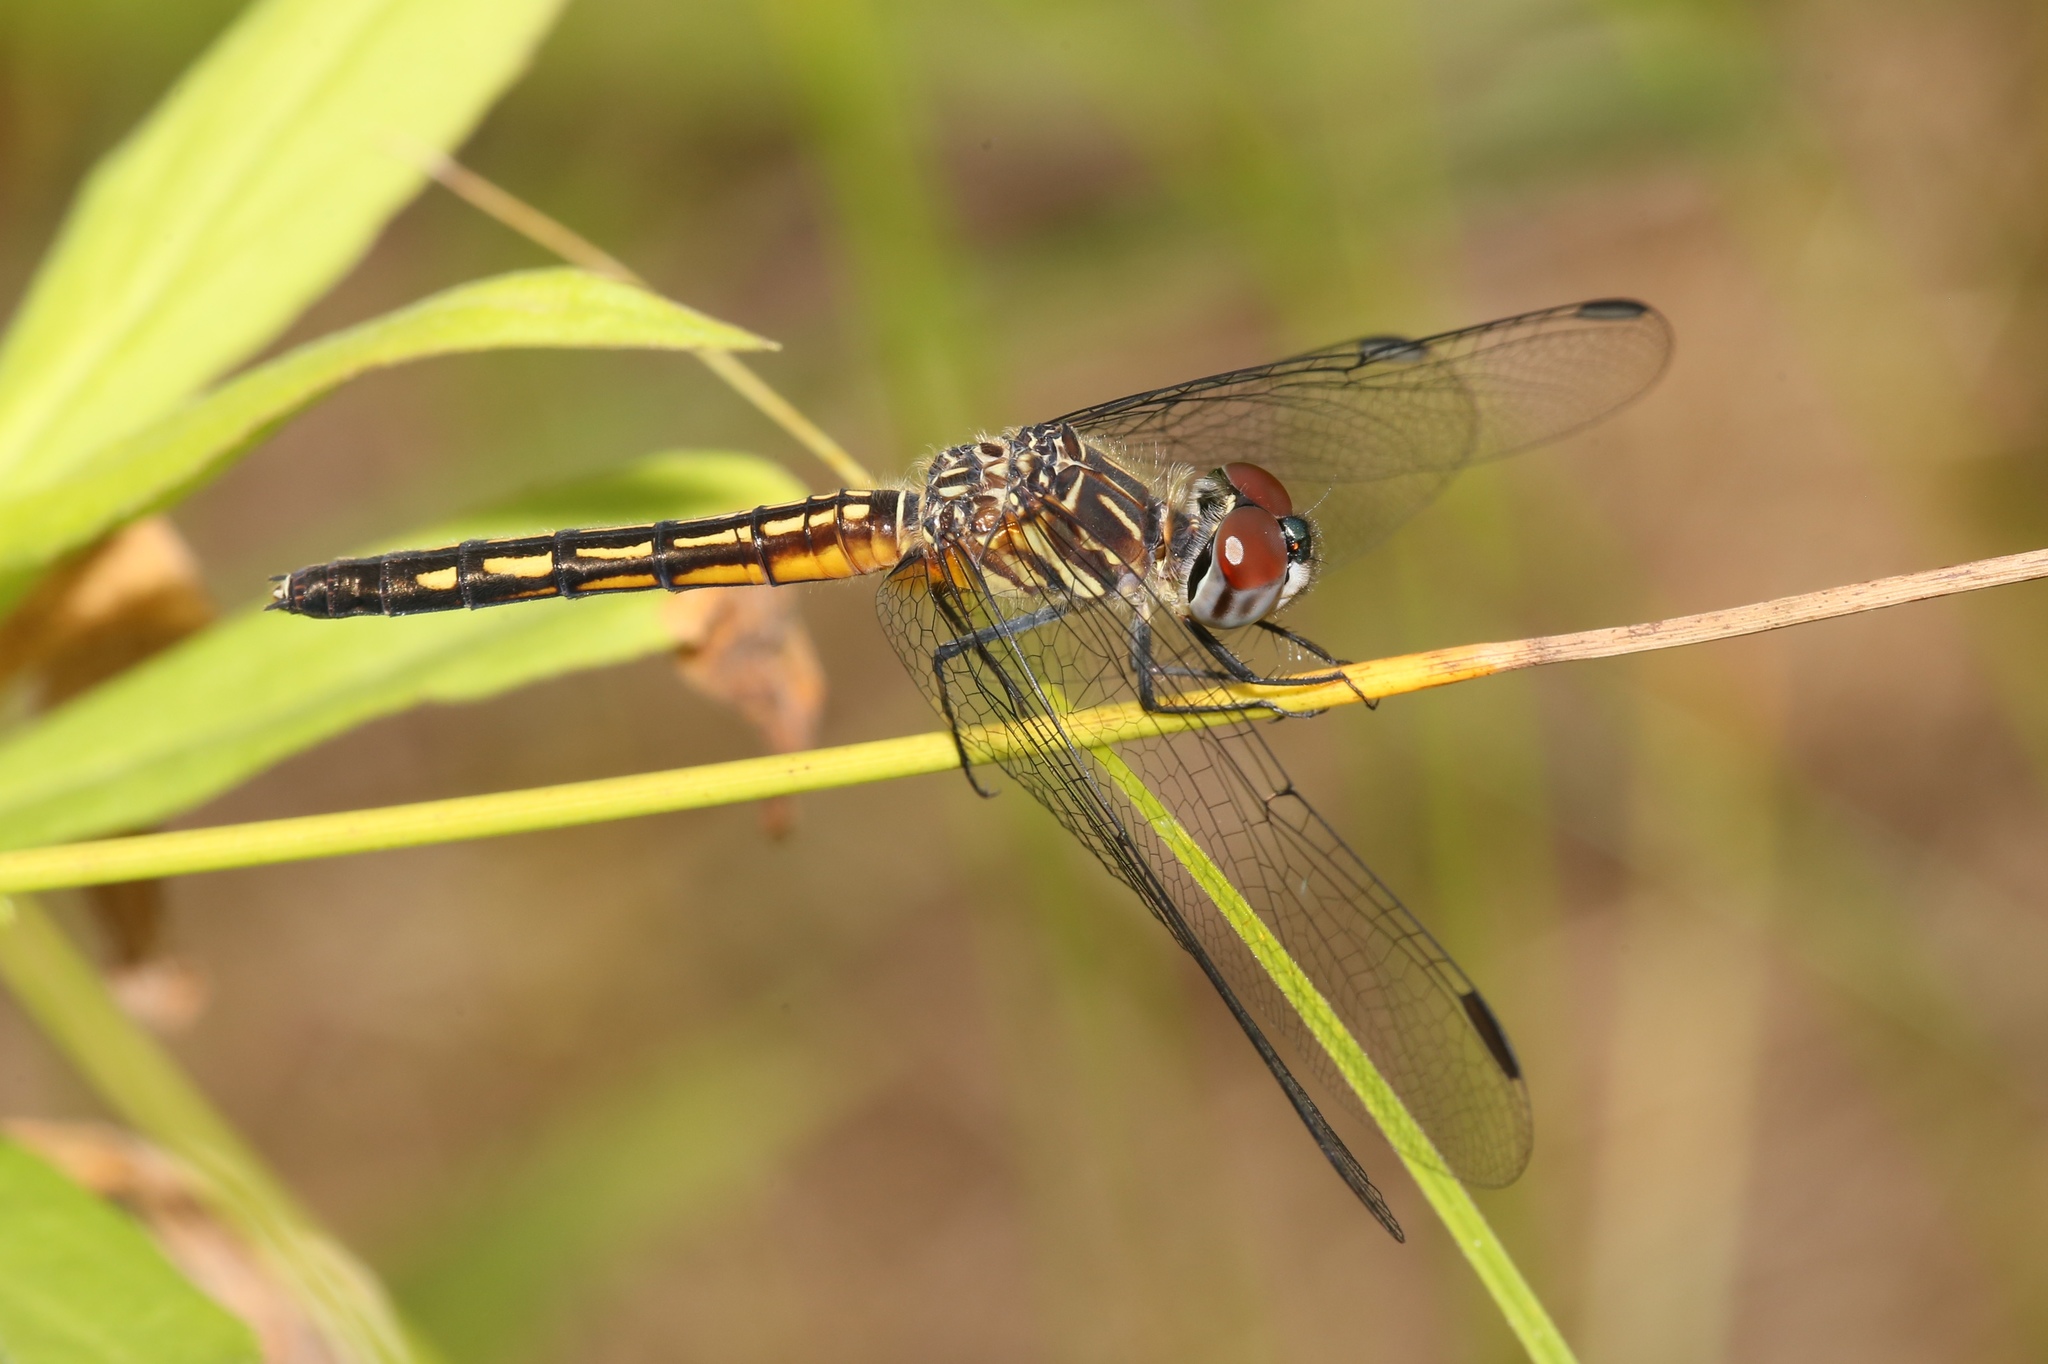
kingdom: Animalia
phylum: Arthropoda
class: Insecta
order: Odonata
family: Libellulidae
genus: Pachydiplax
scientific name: Pachydiplax longipennis
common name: Blue dasher
